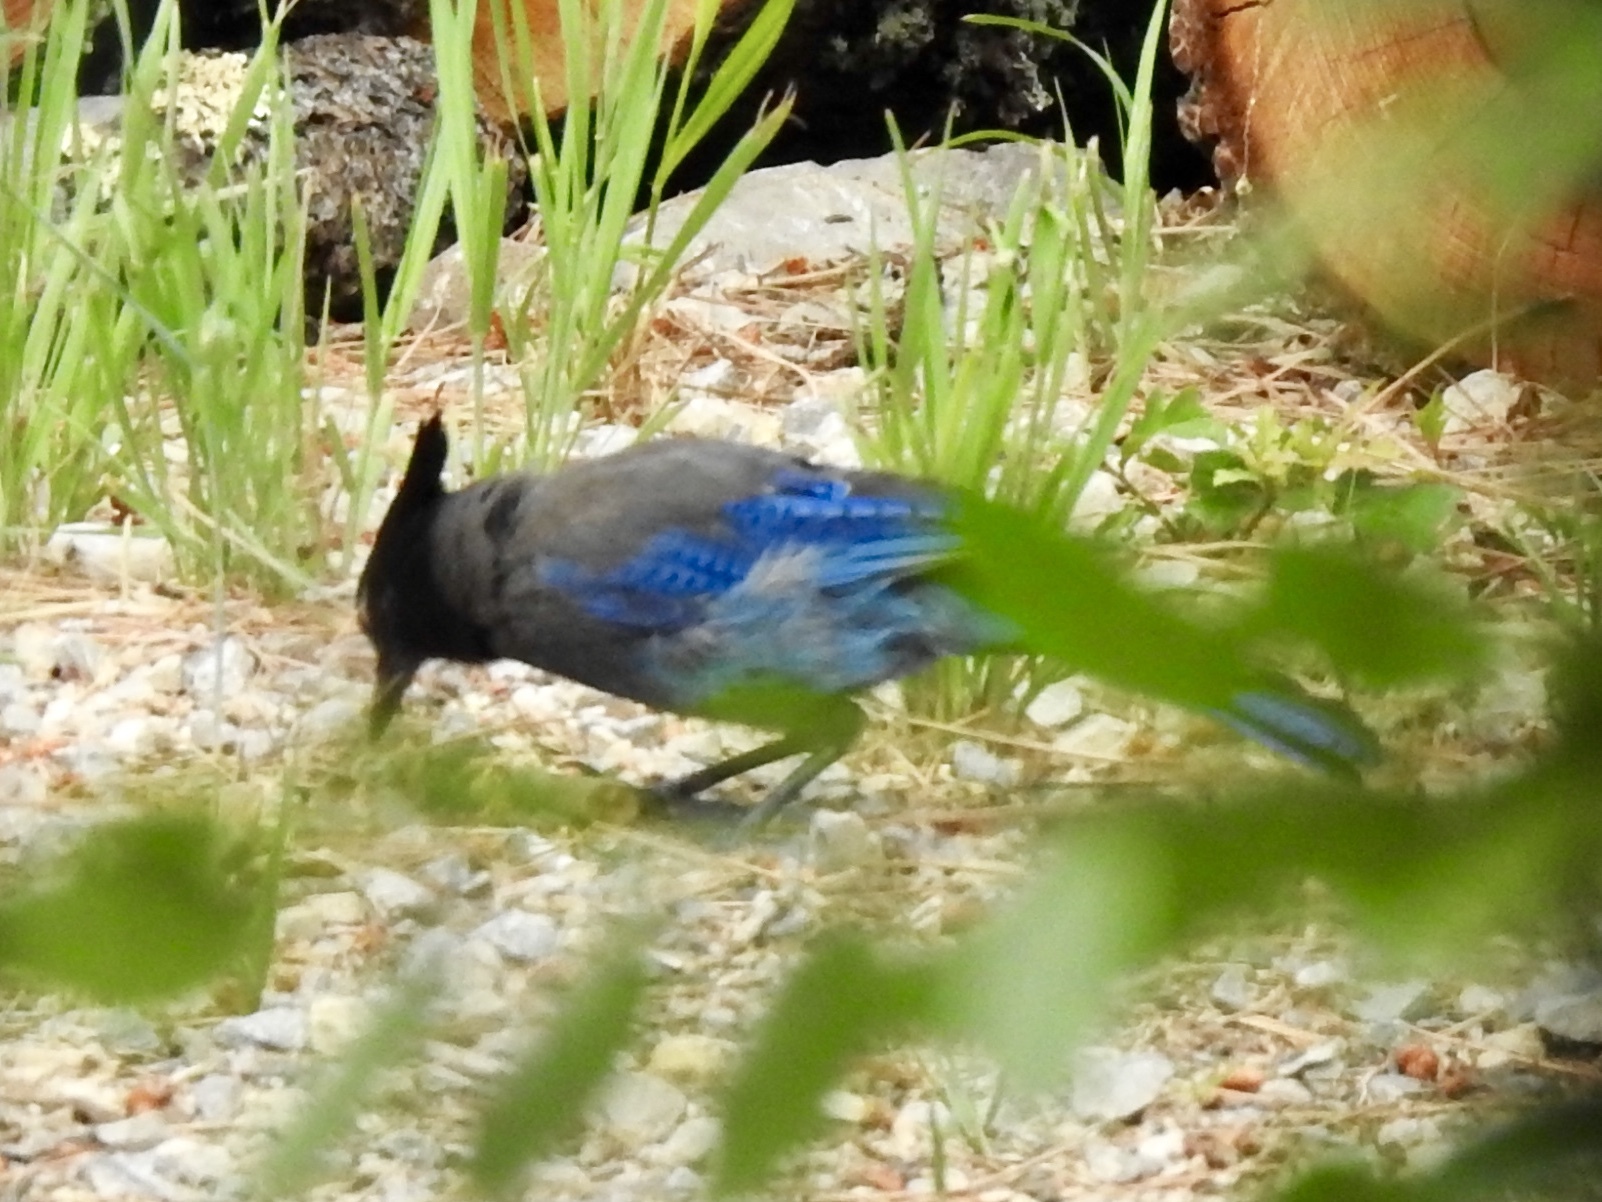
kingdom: Animalia
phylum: Chordata
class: Aves
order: Passeriformes
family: Corvidae
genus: Cyanocitta
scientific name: Cyanocitta stelleri
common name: Steller's jay
